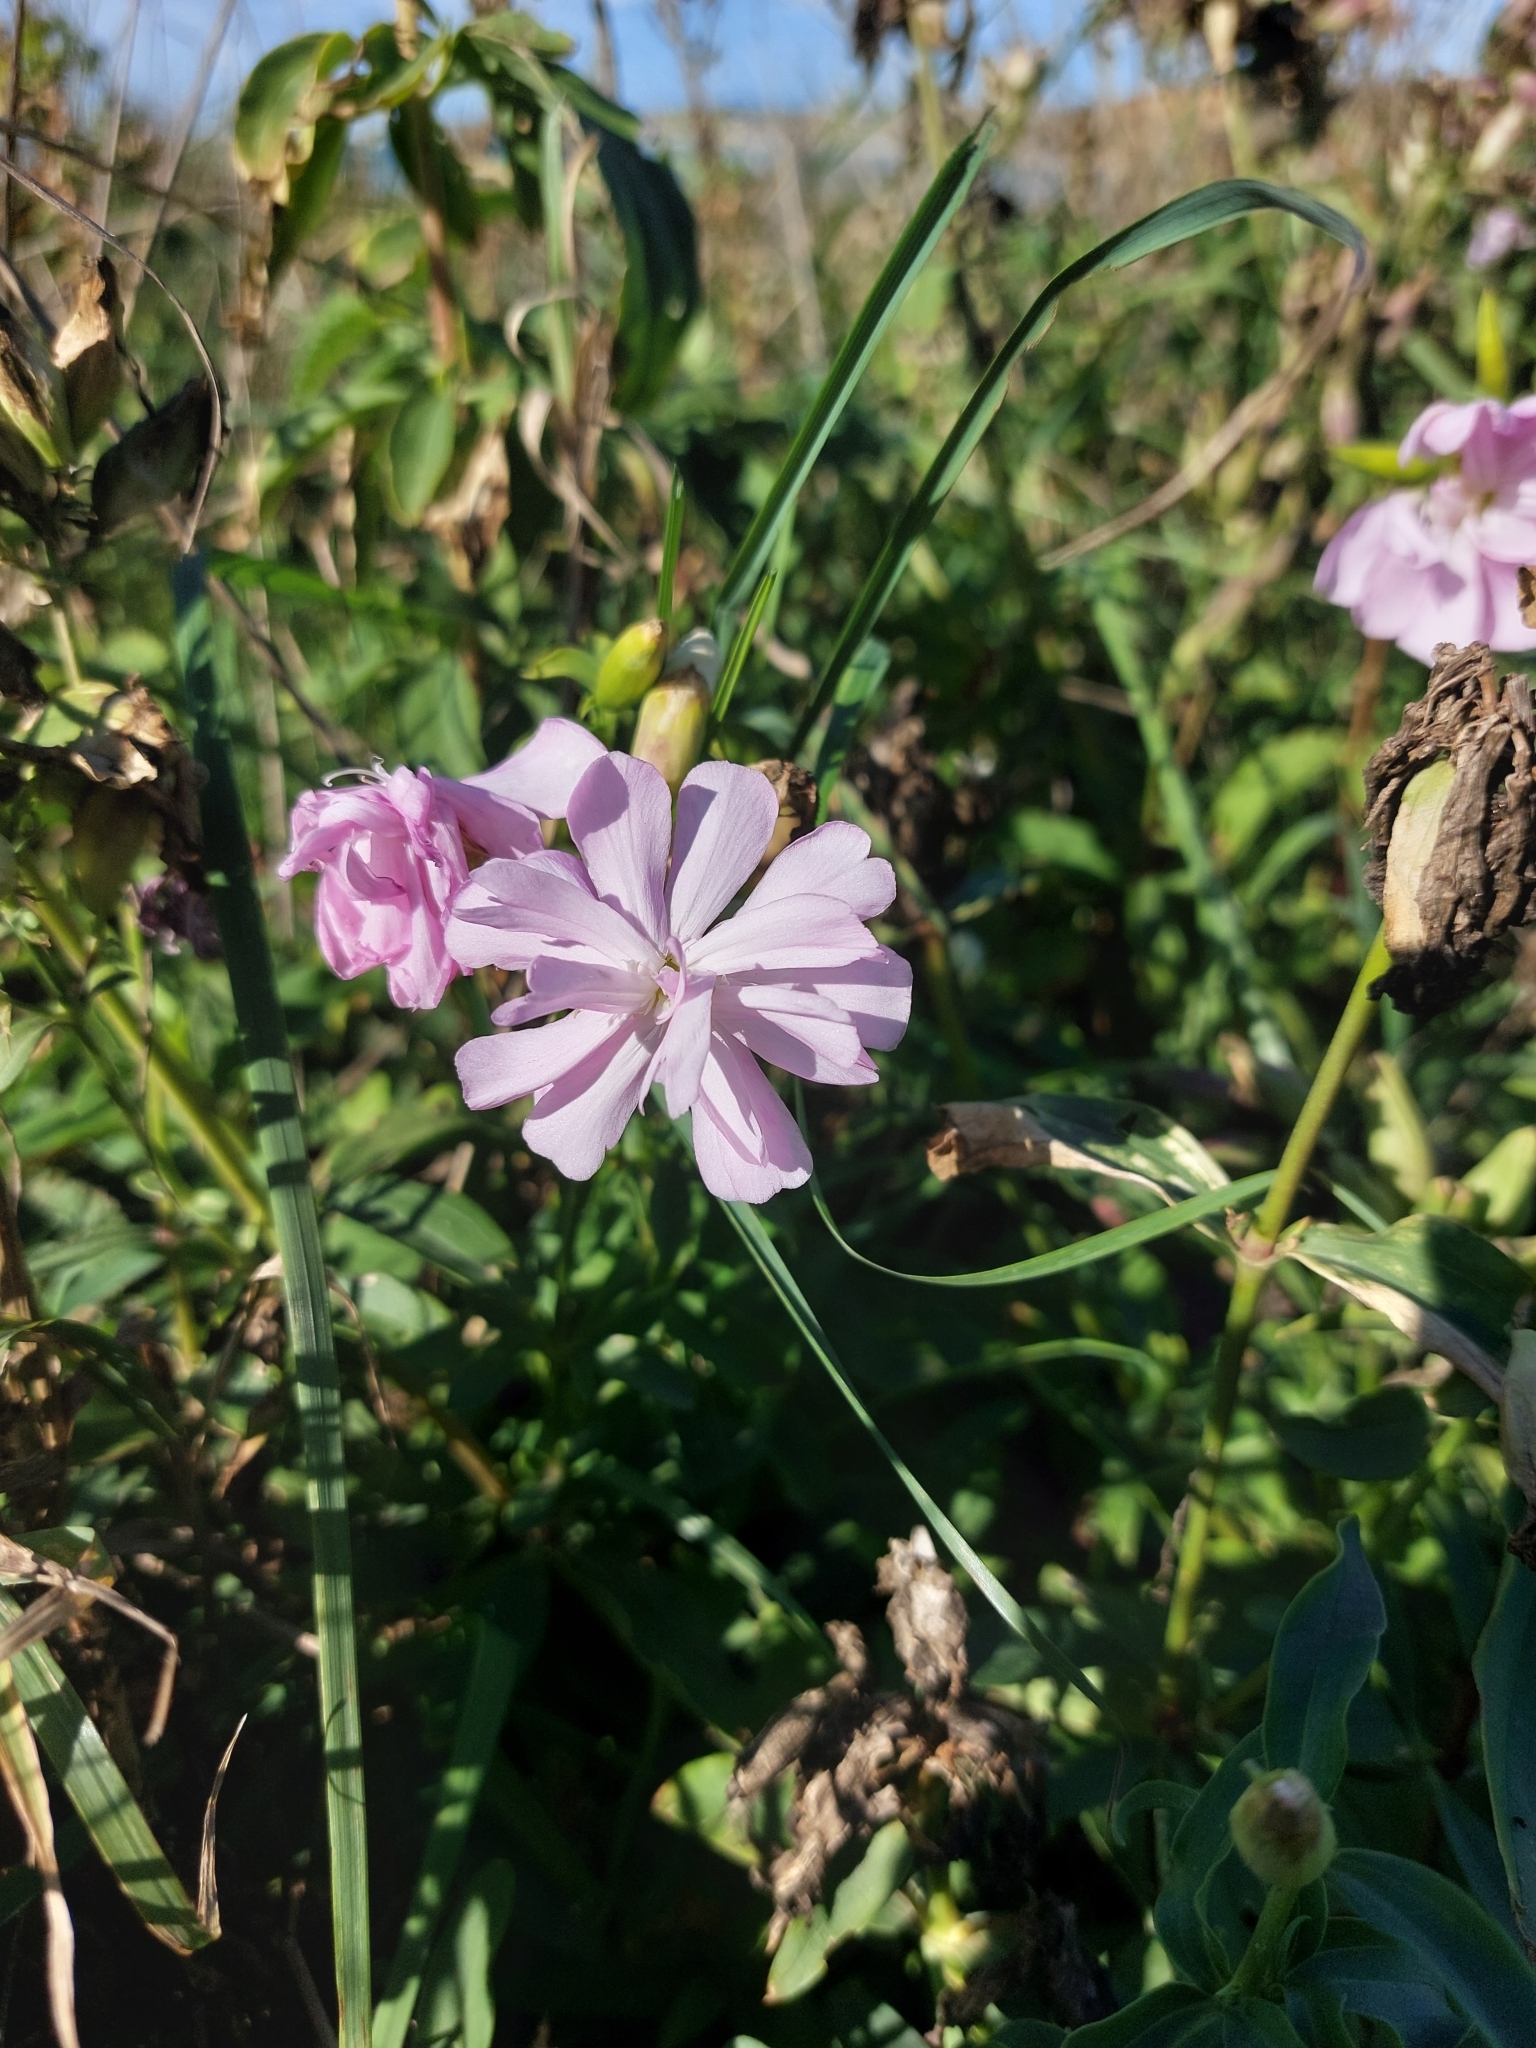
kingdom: Plantae
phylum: Tracheophyta
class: Magnoliopsida
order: Caryophyllales
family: Caryophyllaceae
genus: Saponaria
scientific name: Saponaria officinalis
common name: Soapwort
